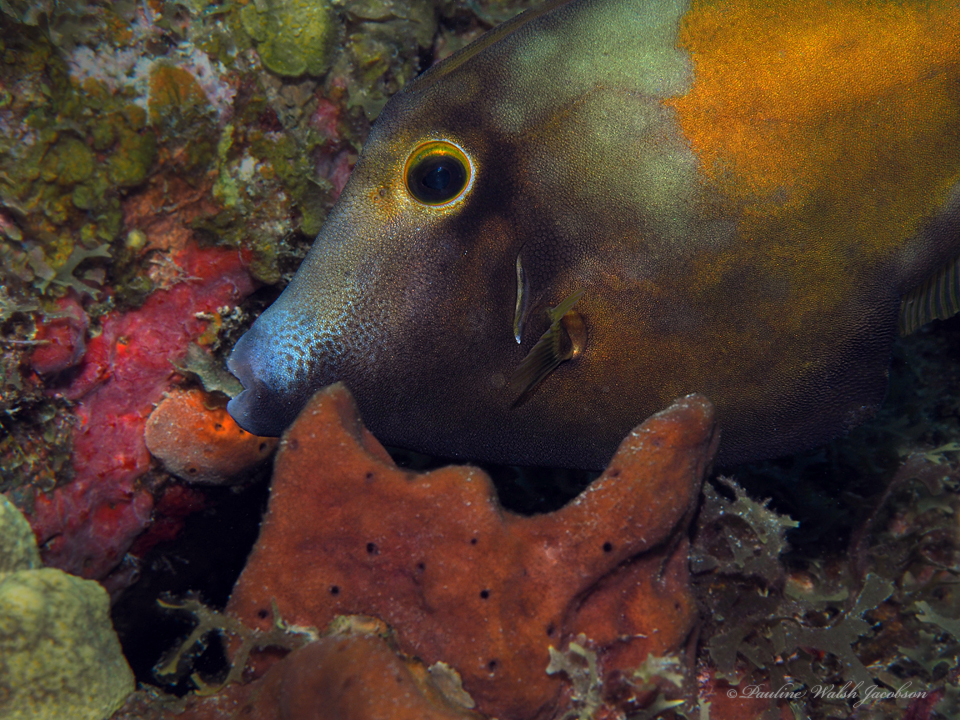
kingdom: Animalia
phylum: Chordata
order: Tetraodontiformes
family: Monacanthidae
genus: Cantherhines
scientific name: Cantherhines macrocerus
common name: Whitespotted filefish
